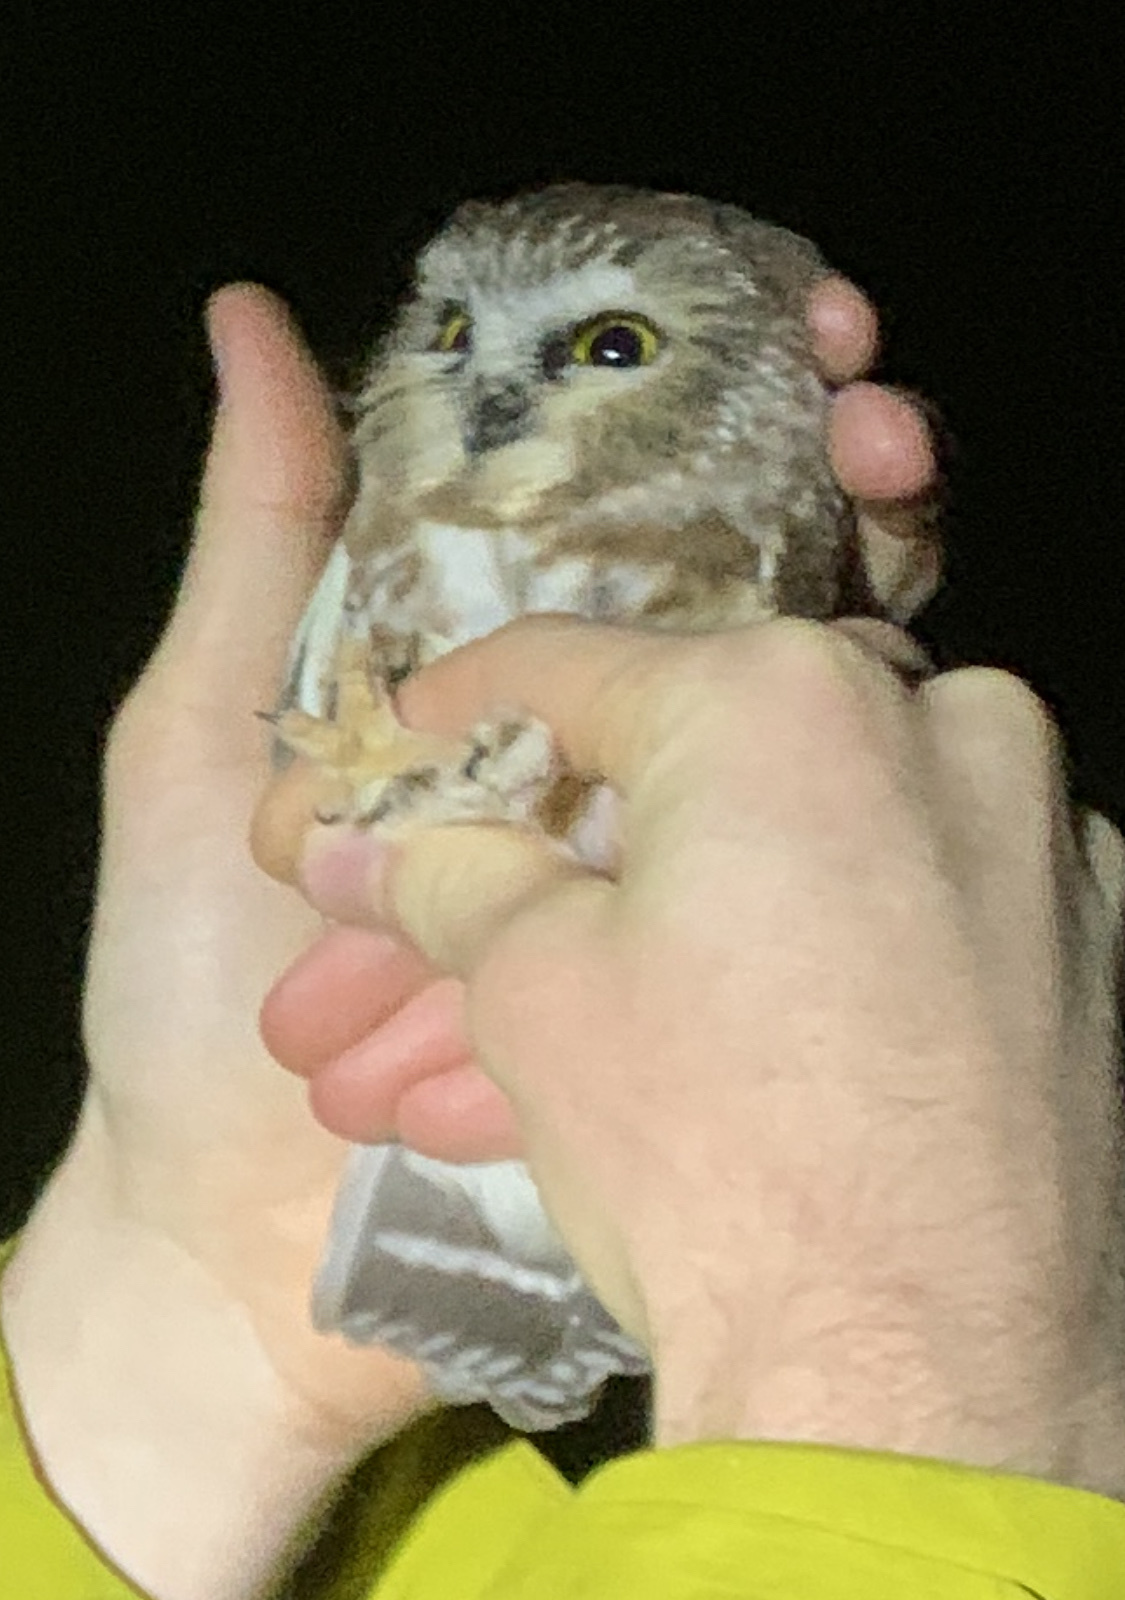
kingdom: Animalia
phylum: Chordata
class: Aves
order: Strigiformes
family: Strigidae
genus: Aegolius
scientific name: Aegolius acadicus
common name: Northern saw-whet owl
